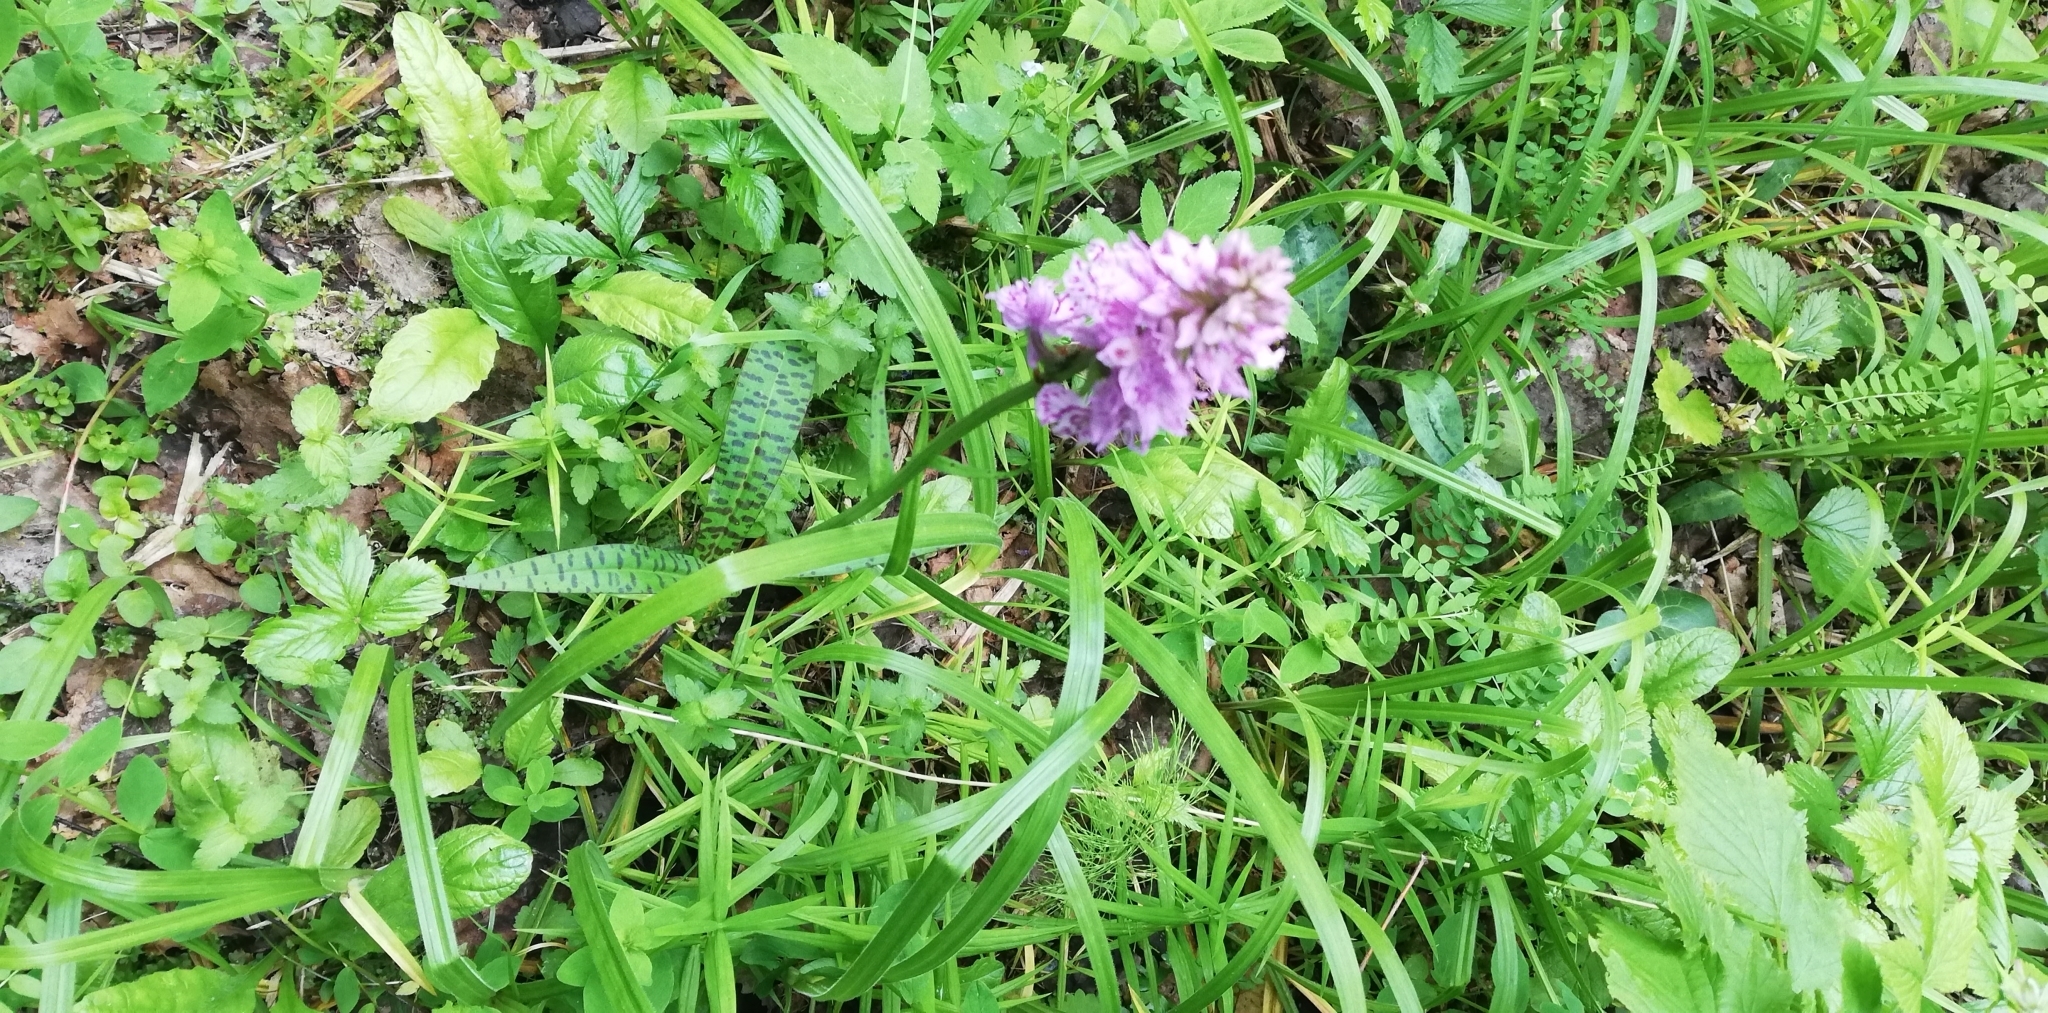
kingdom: Plantae
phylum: Tracheophyta
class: Liliopsida
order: Asparagales
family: Orchidaceae
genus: Dactylorhiza
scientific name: Dactylorhiza maculata
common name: Heath spotted-orchid
